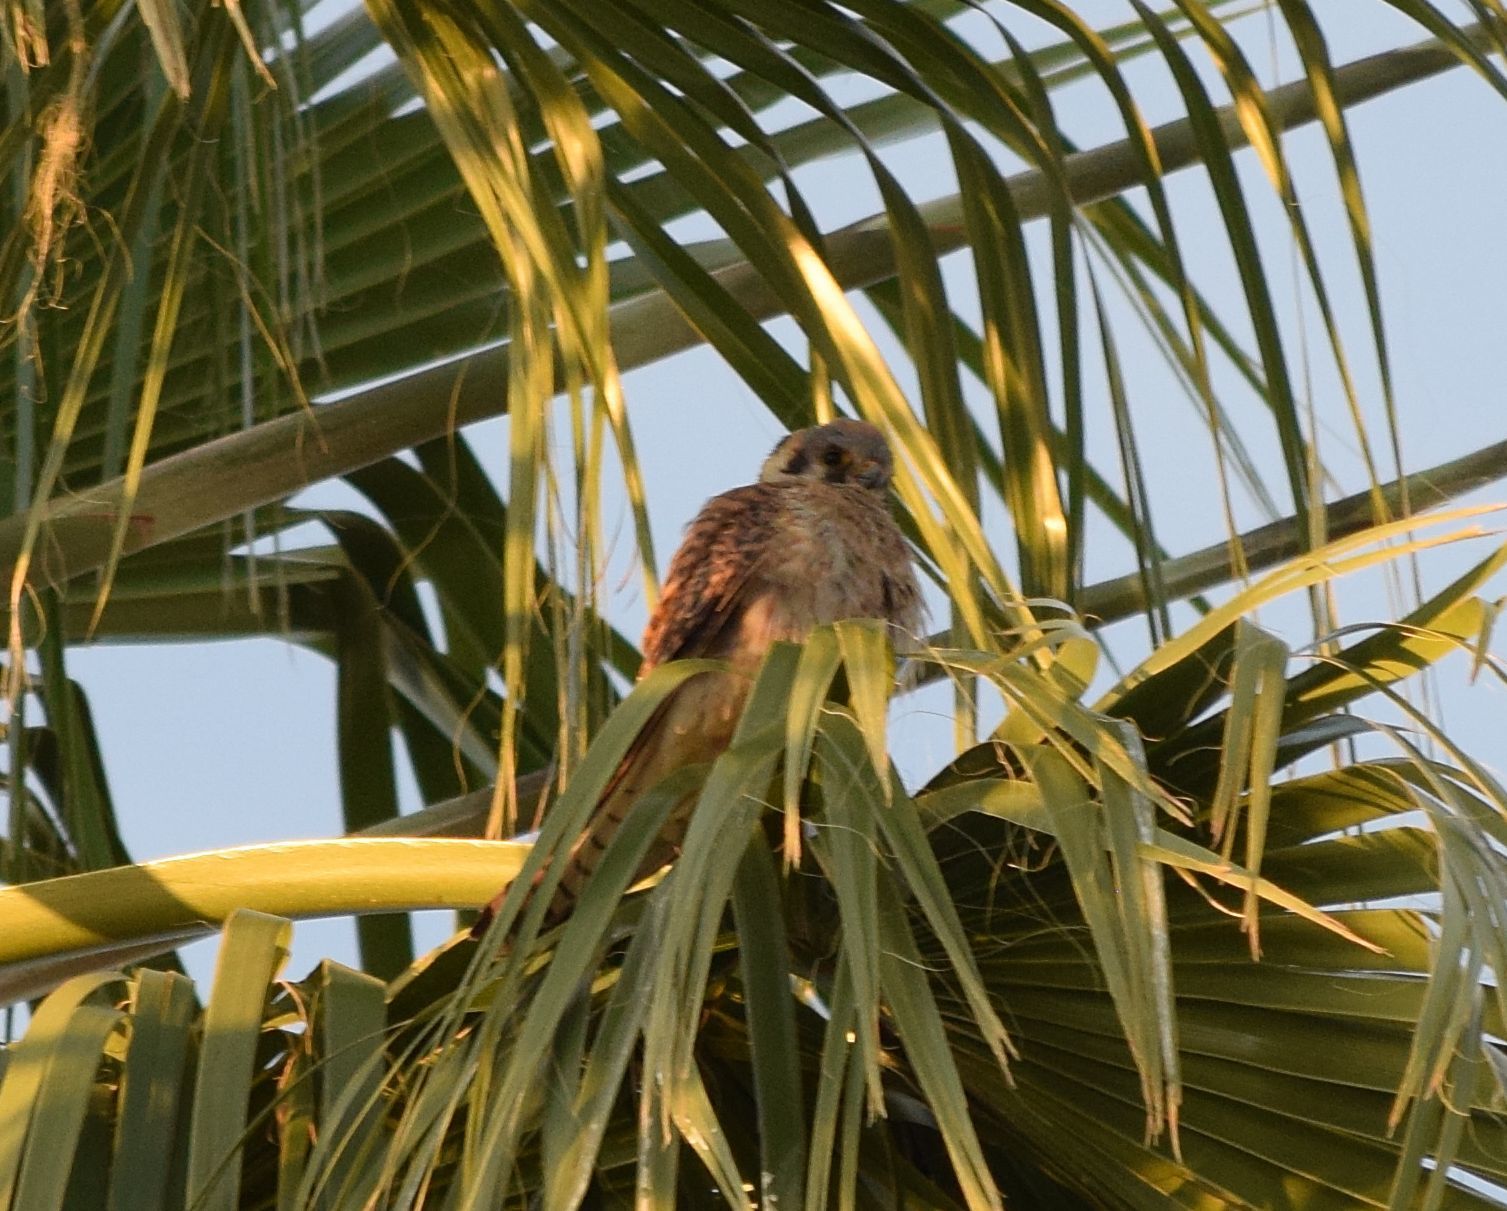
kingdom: Animalia
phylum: Chordata
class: Aves
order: Falconiformes
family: Falconidae
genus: Falco
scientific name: Falco sparverius
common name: American kestrel
